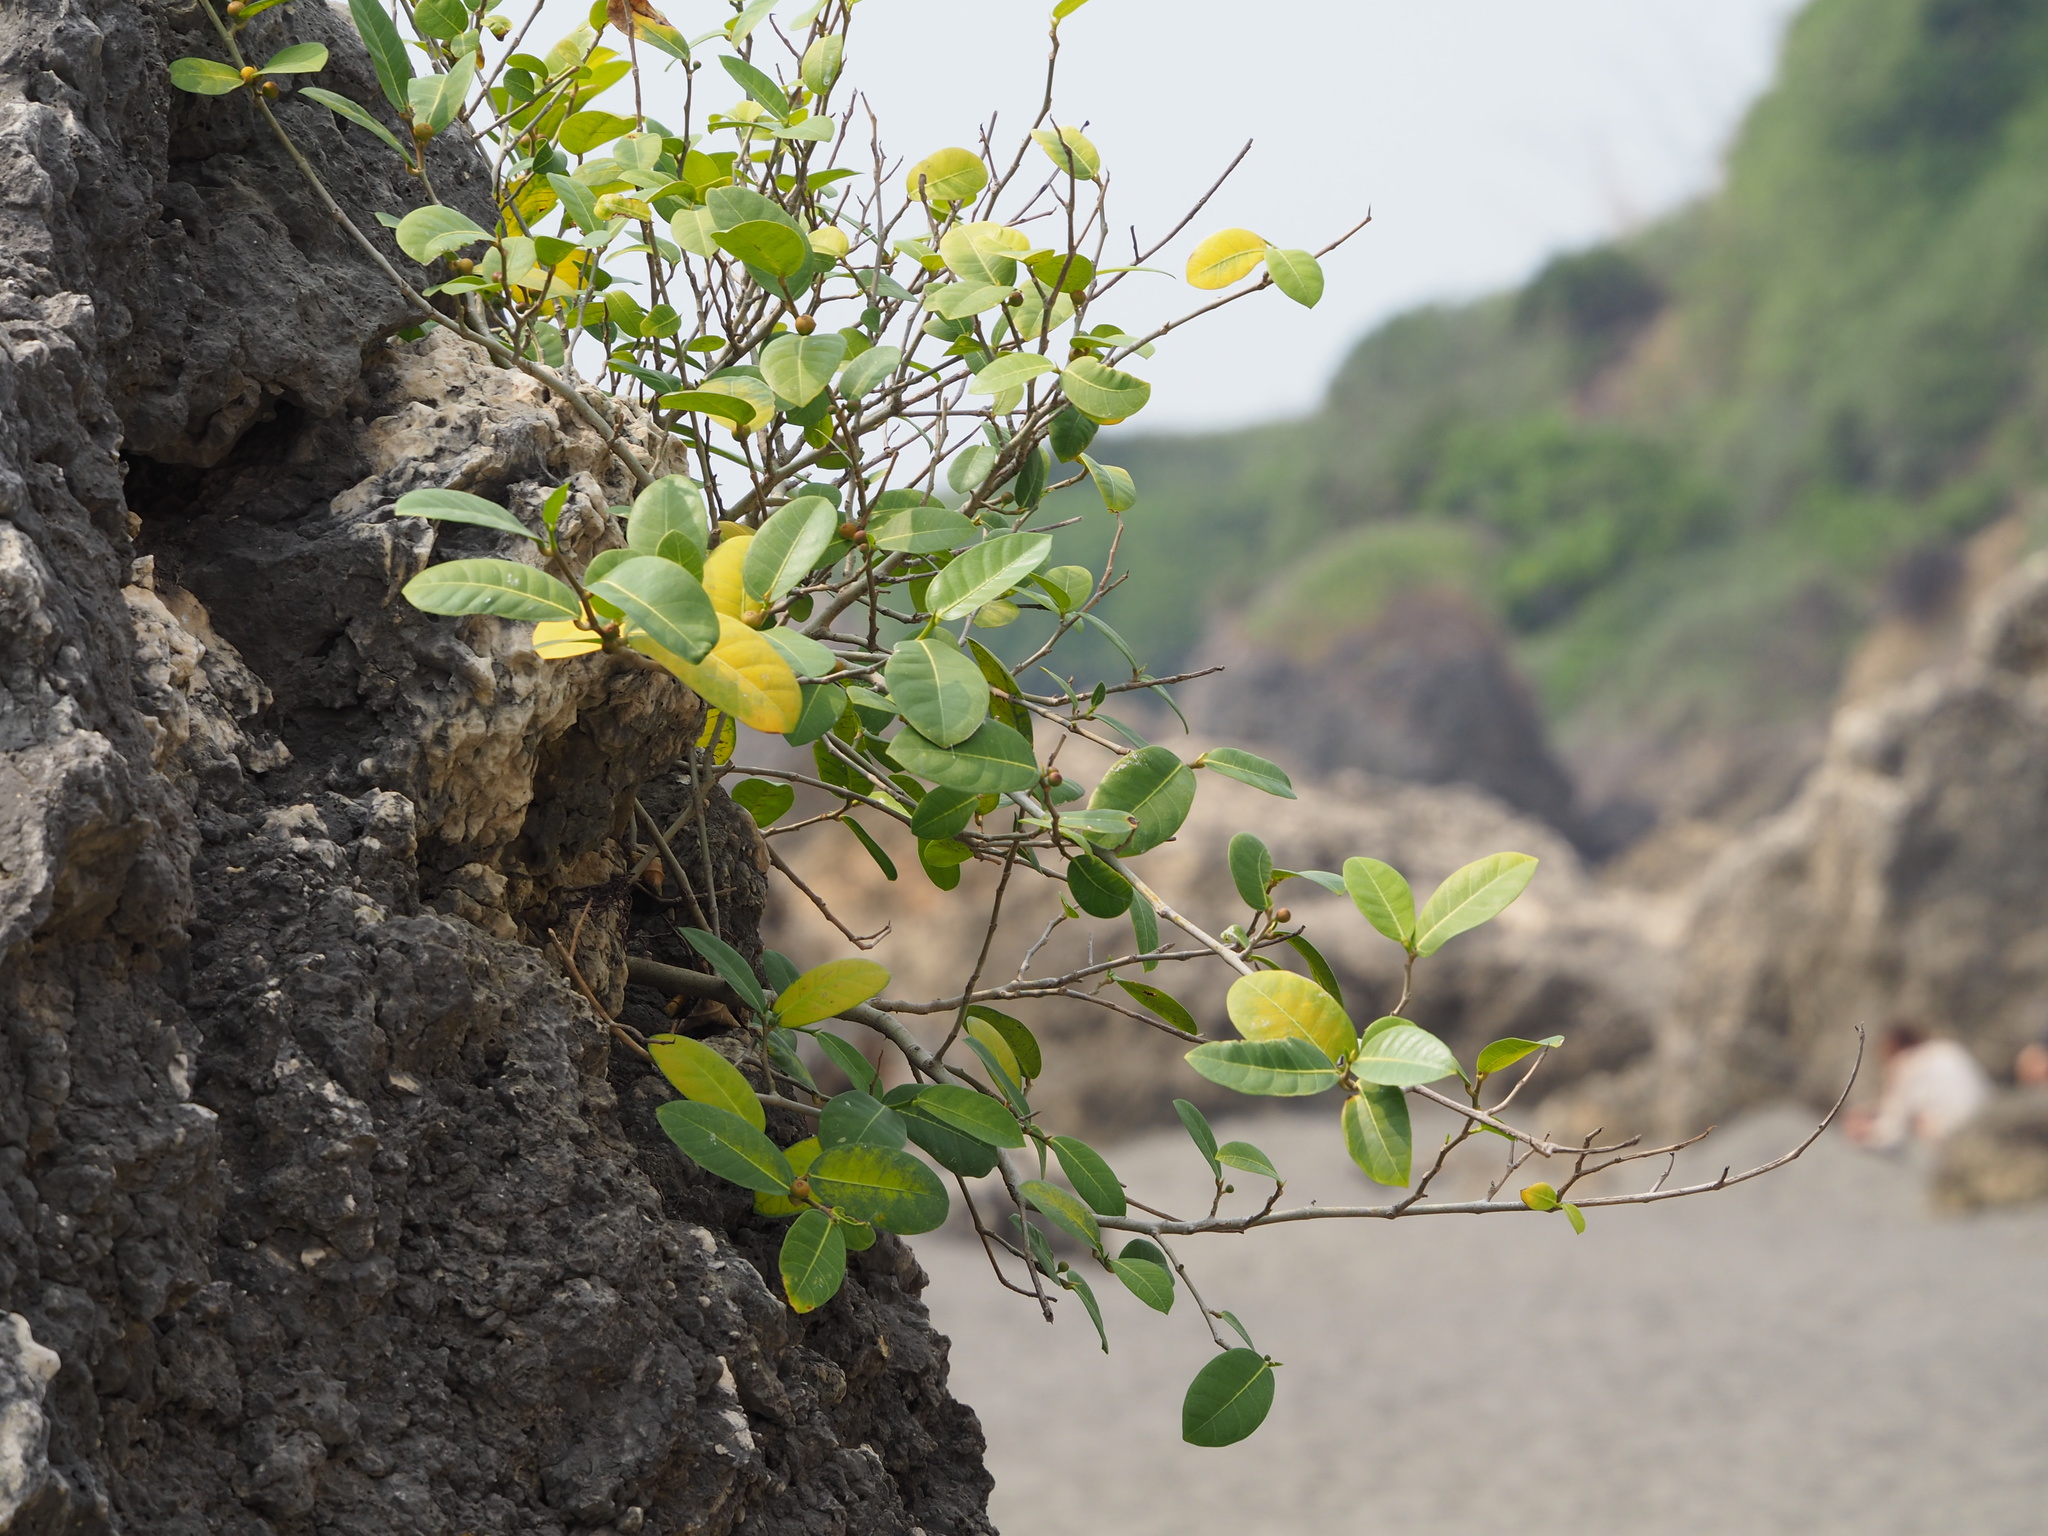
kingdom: Plantae
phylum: Tracheophyta
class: Magnoliopsida
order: Rosales
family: Moraceae
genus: Ficus
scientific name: Ficus tinctoria
